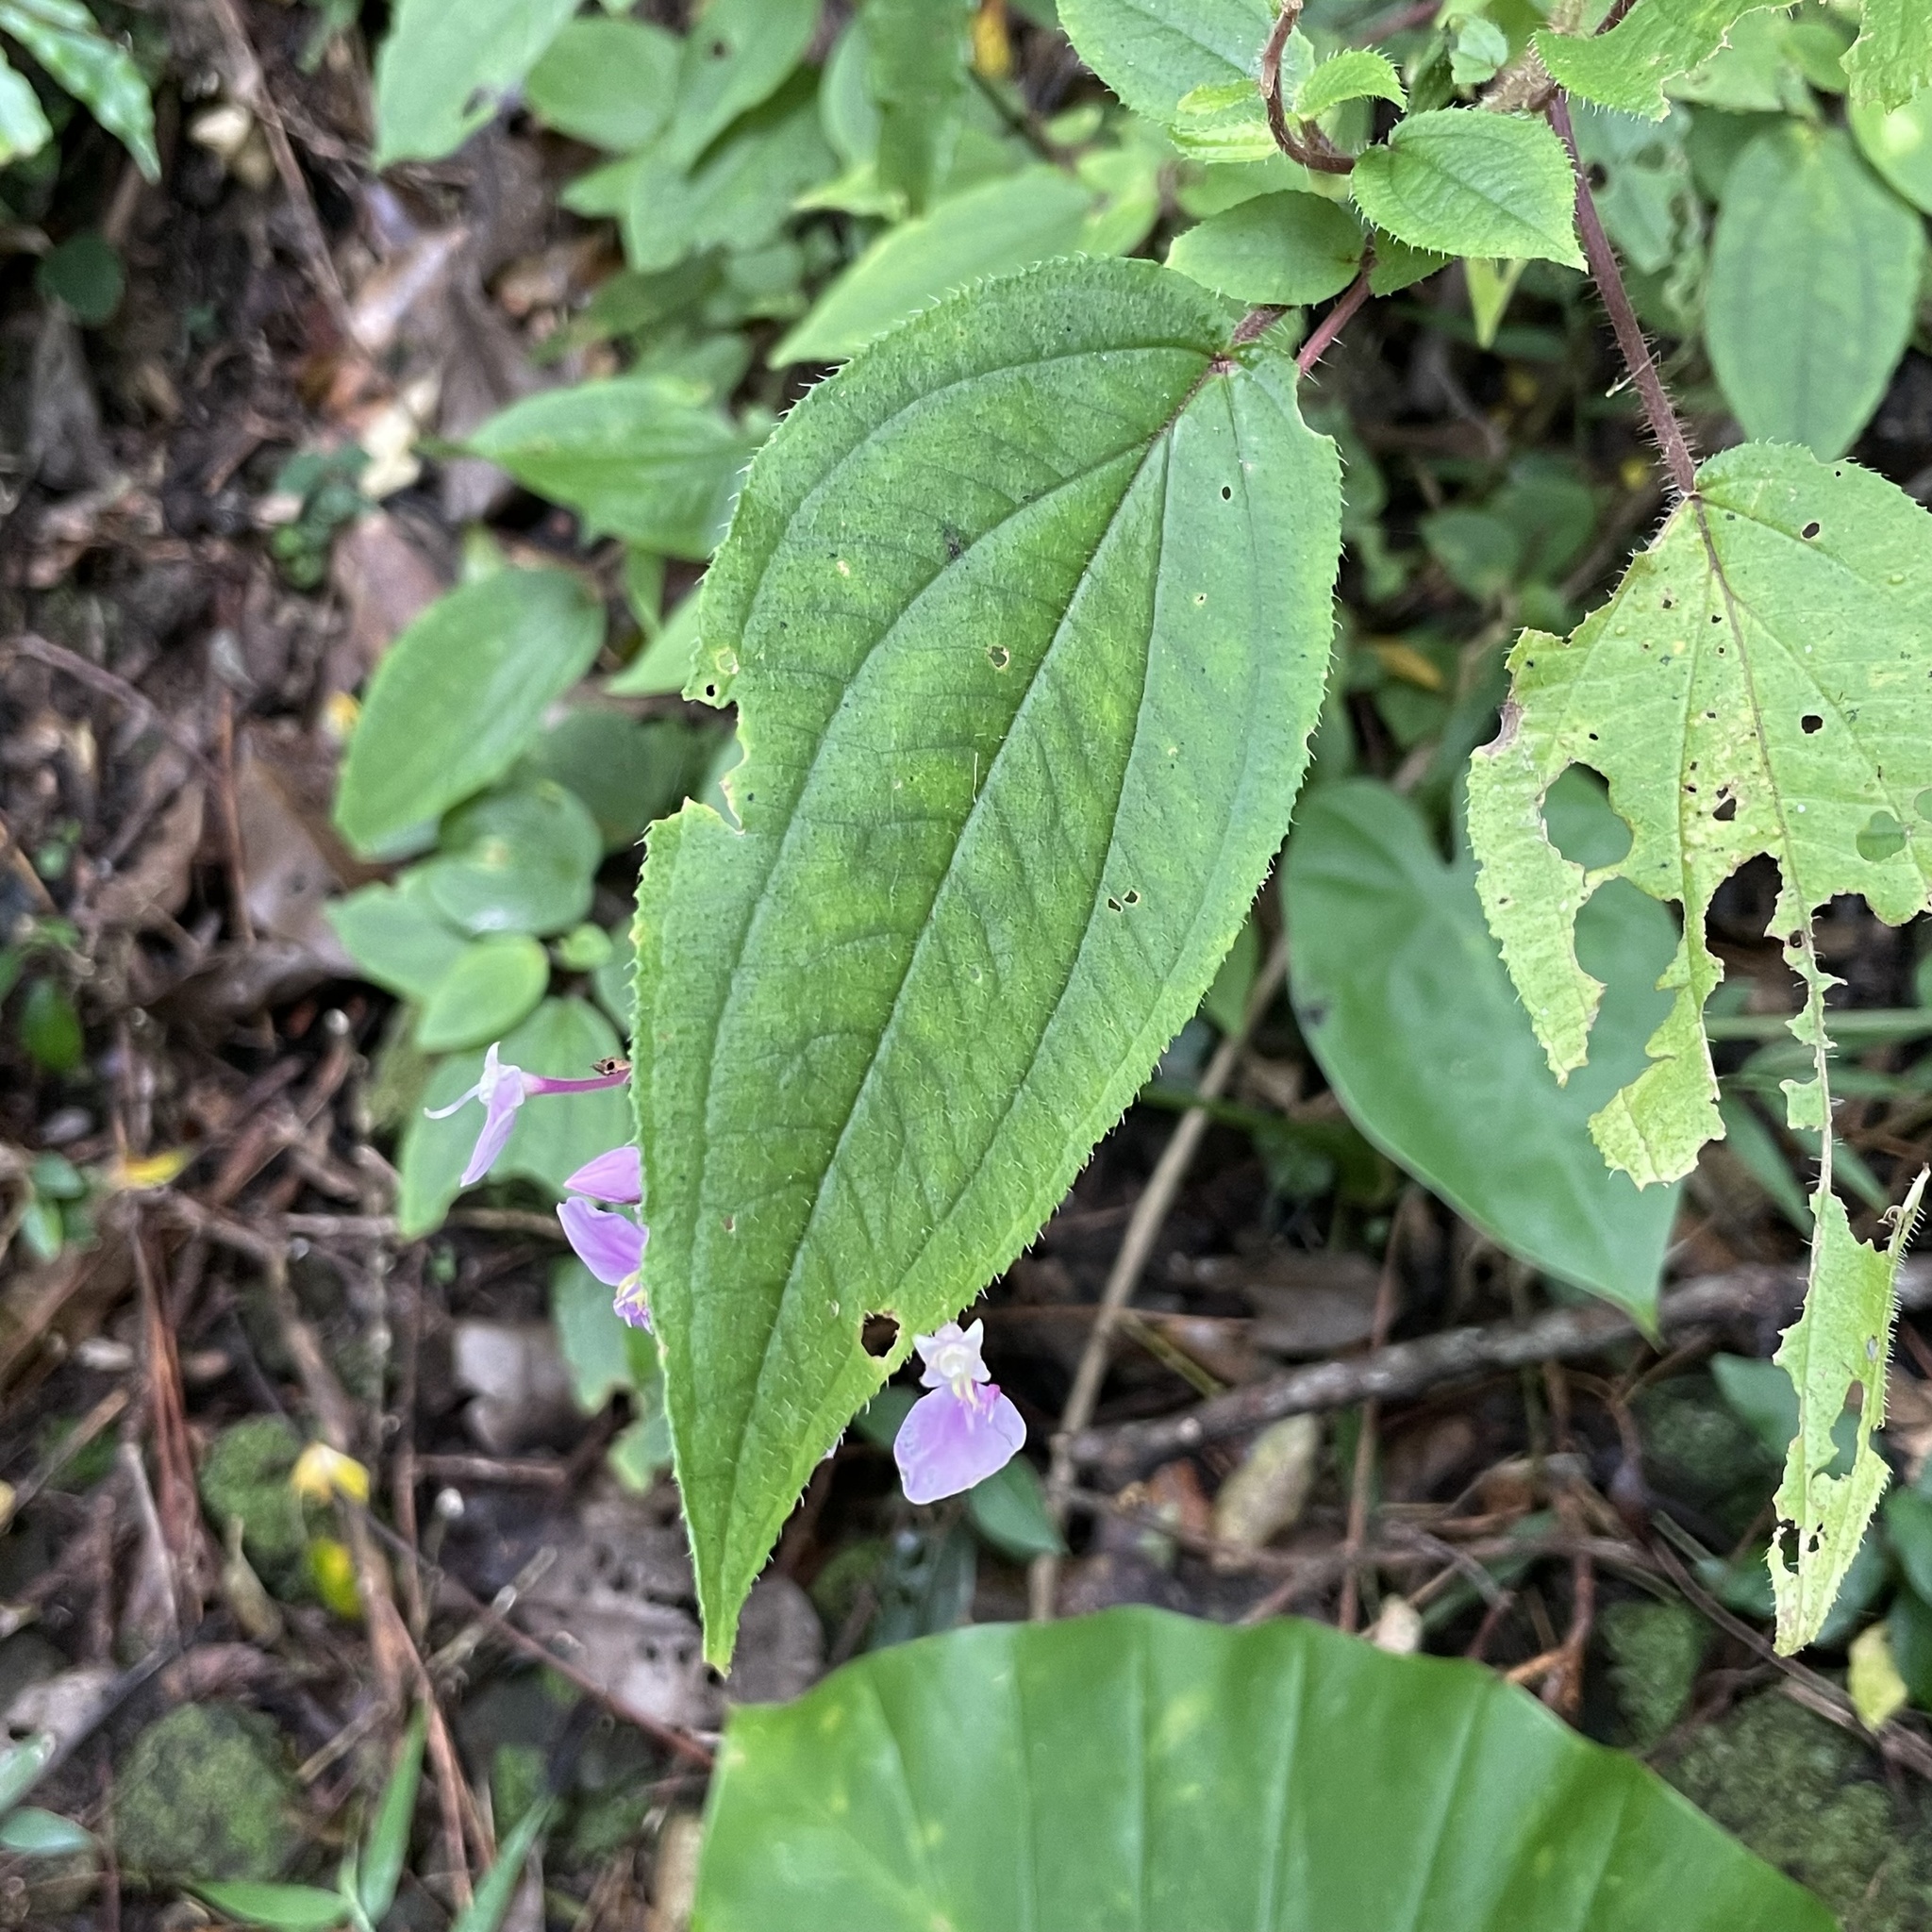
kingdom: Plantae
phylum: Tracheophyta
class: Magnoliopsida
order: Myrtales
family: Melastomataceae
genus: Bredia
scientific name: Bredia hirsuta
